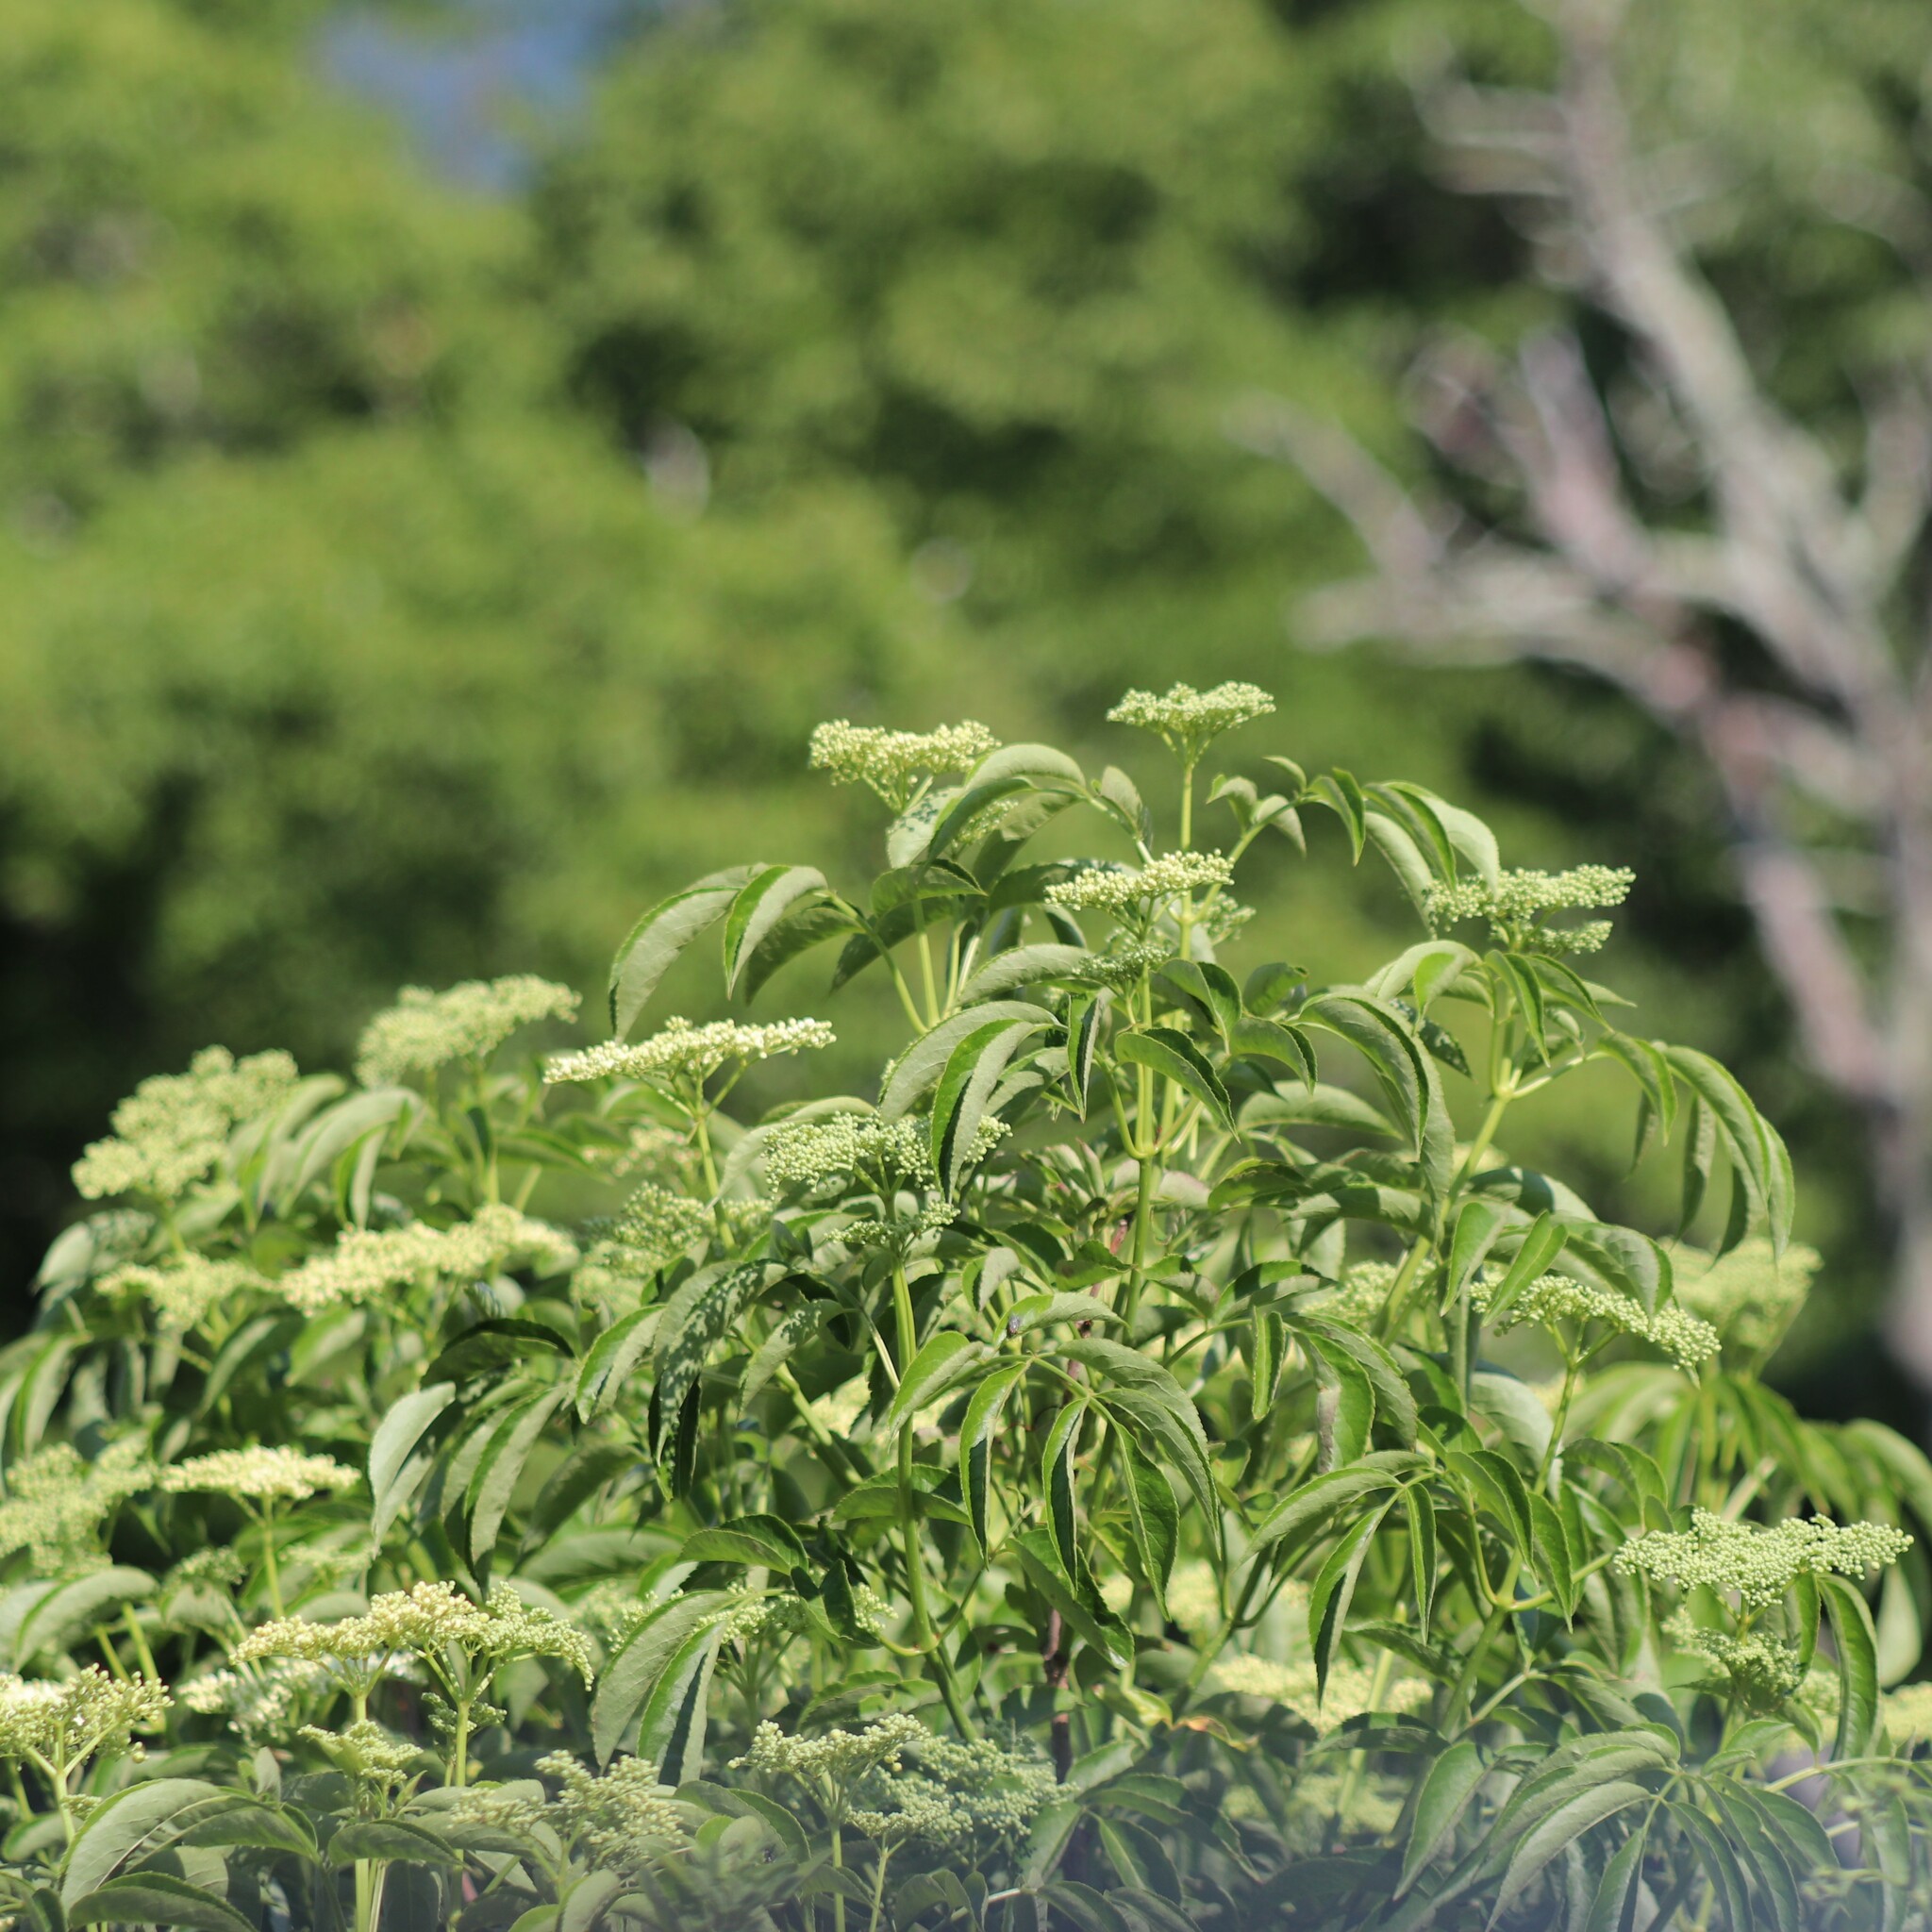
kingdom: Plantae
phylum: Tracheophyta
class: Magnoliopsida
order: Dipsacales
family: Viburnaceae
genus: Sambucus
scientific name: Sambucus canadensis
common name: American elder
